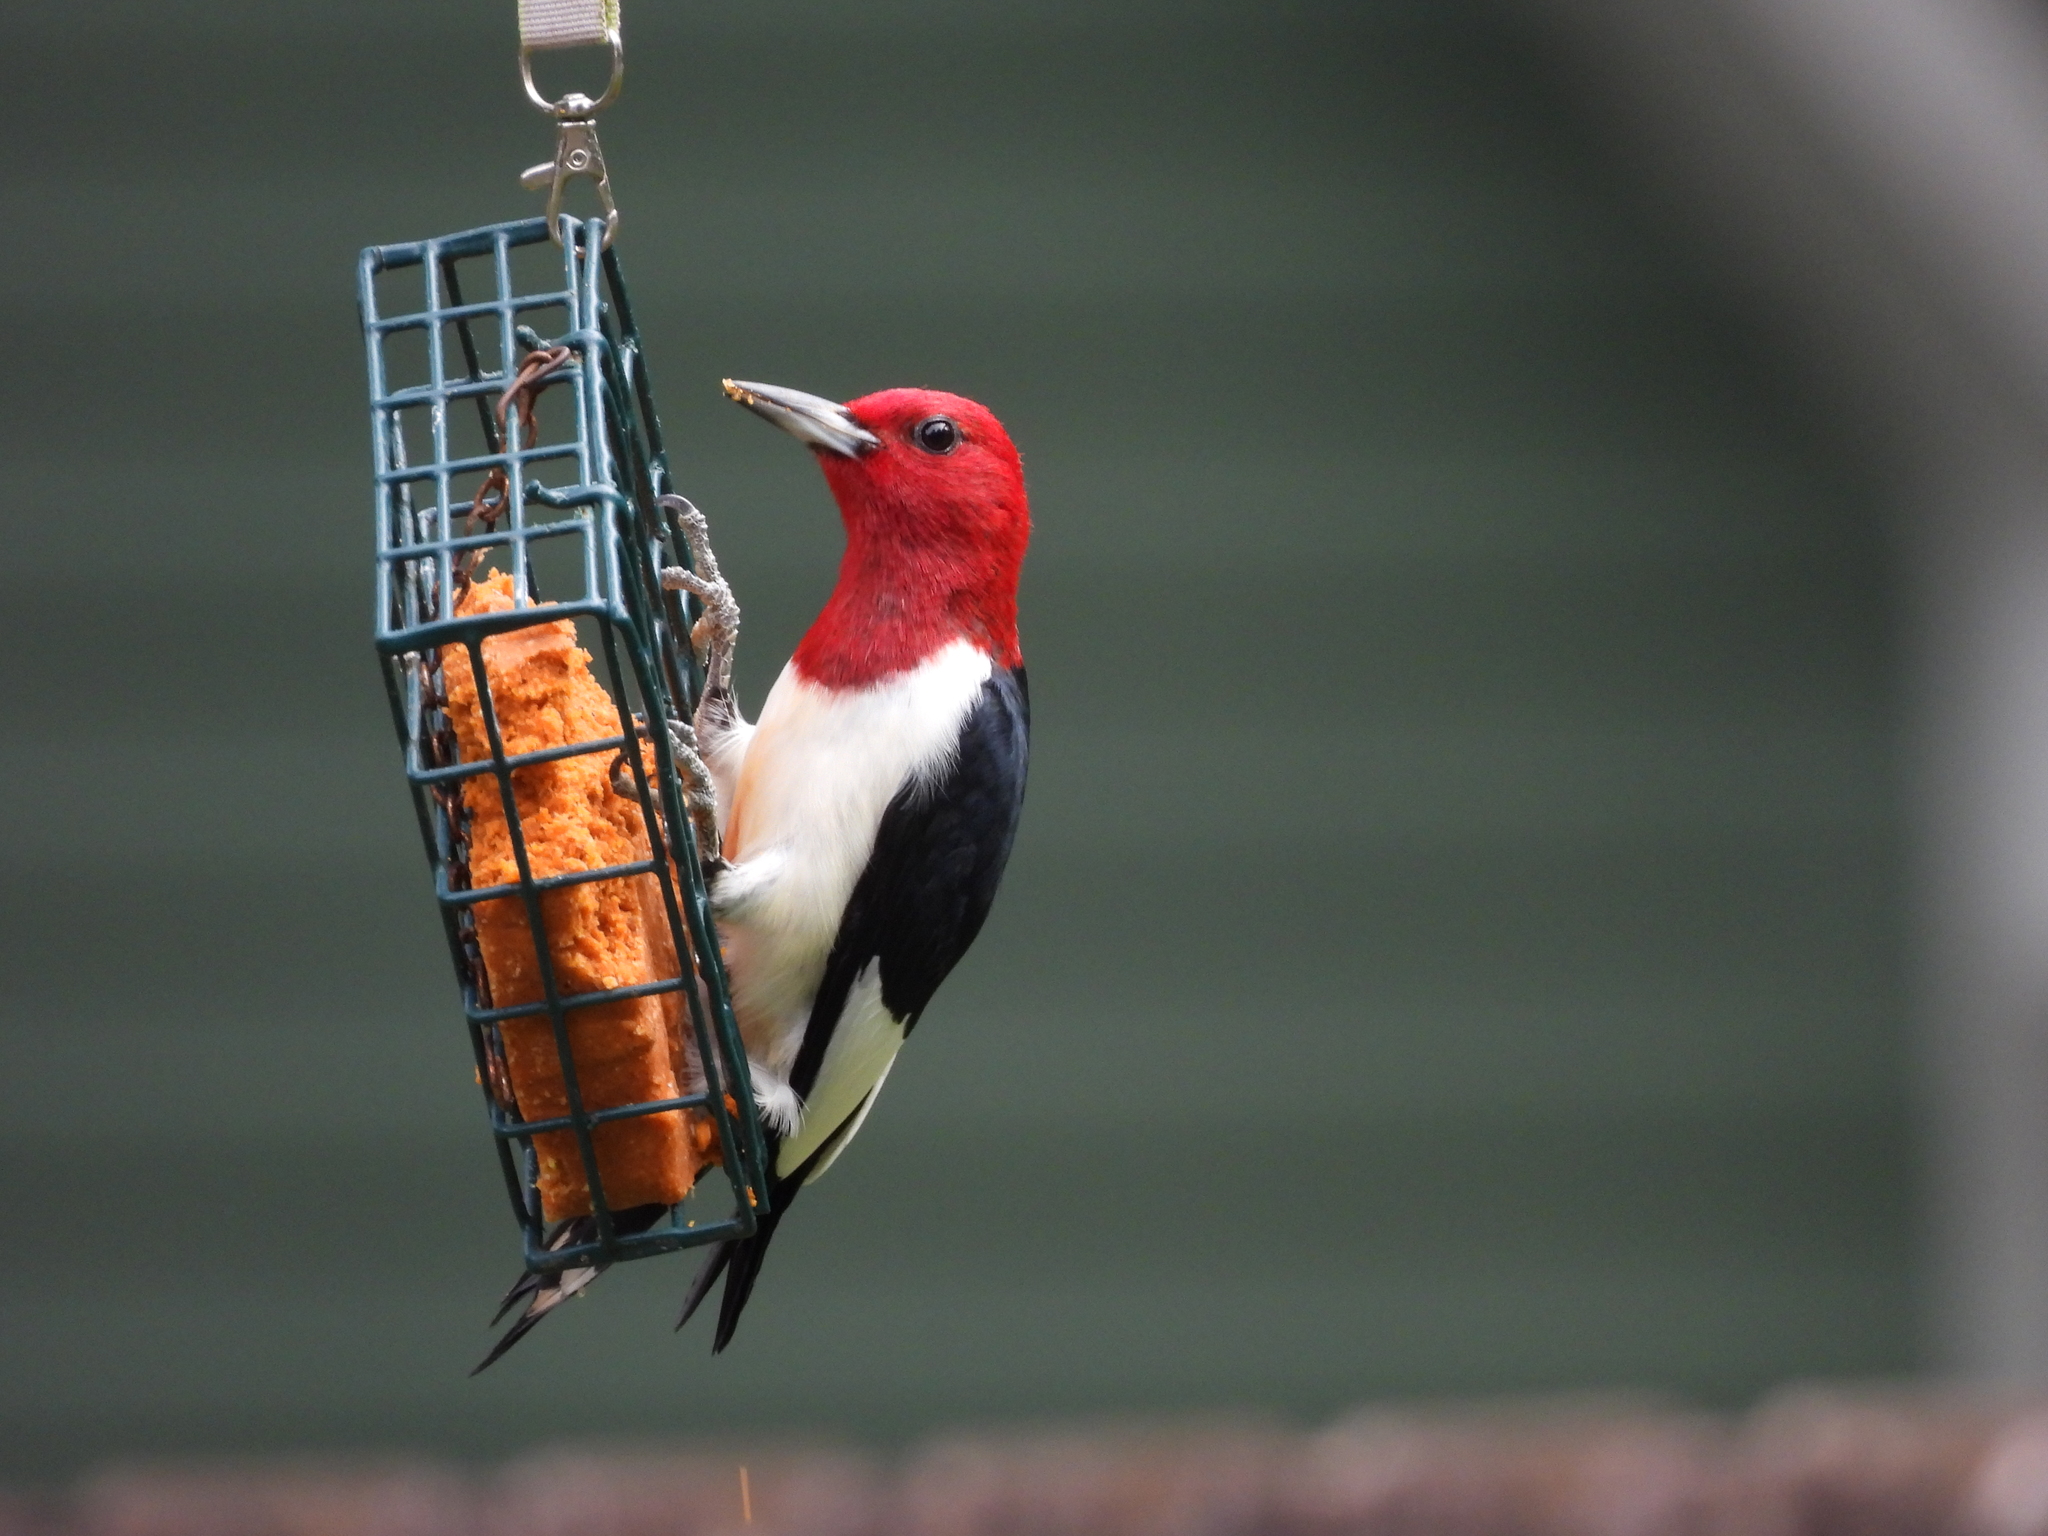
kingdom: Animalia
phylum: Chordata
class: Aves
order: Piciformes
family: Picidae
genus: Melanerpes
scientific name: Melanerpes erythrocephalus
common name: Red-headed woodpecker
